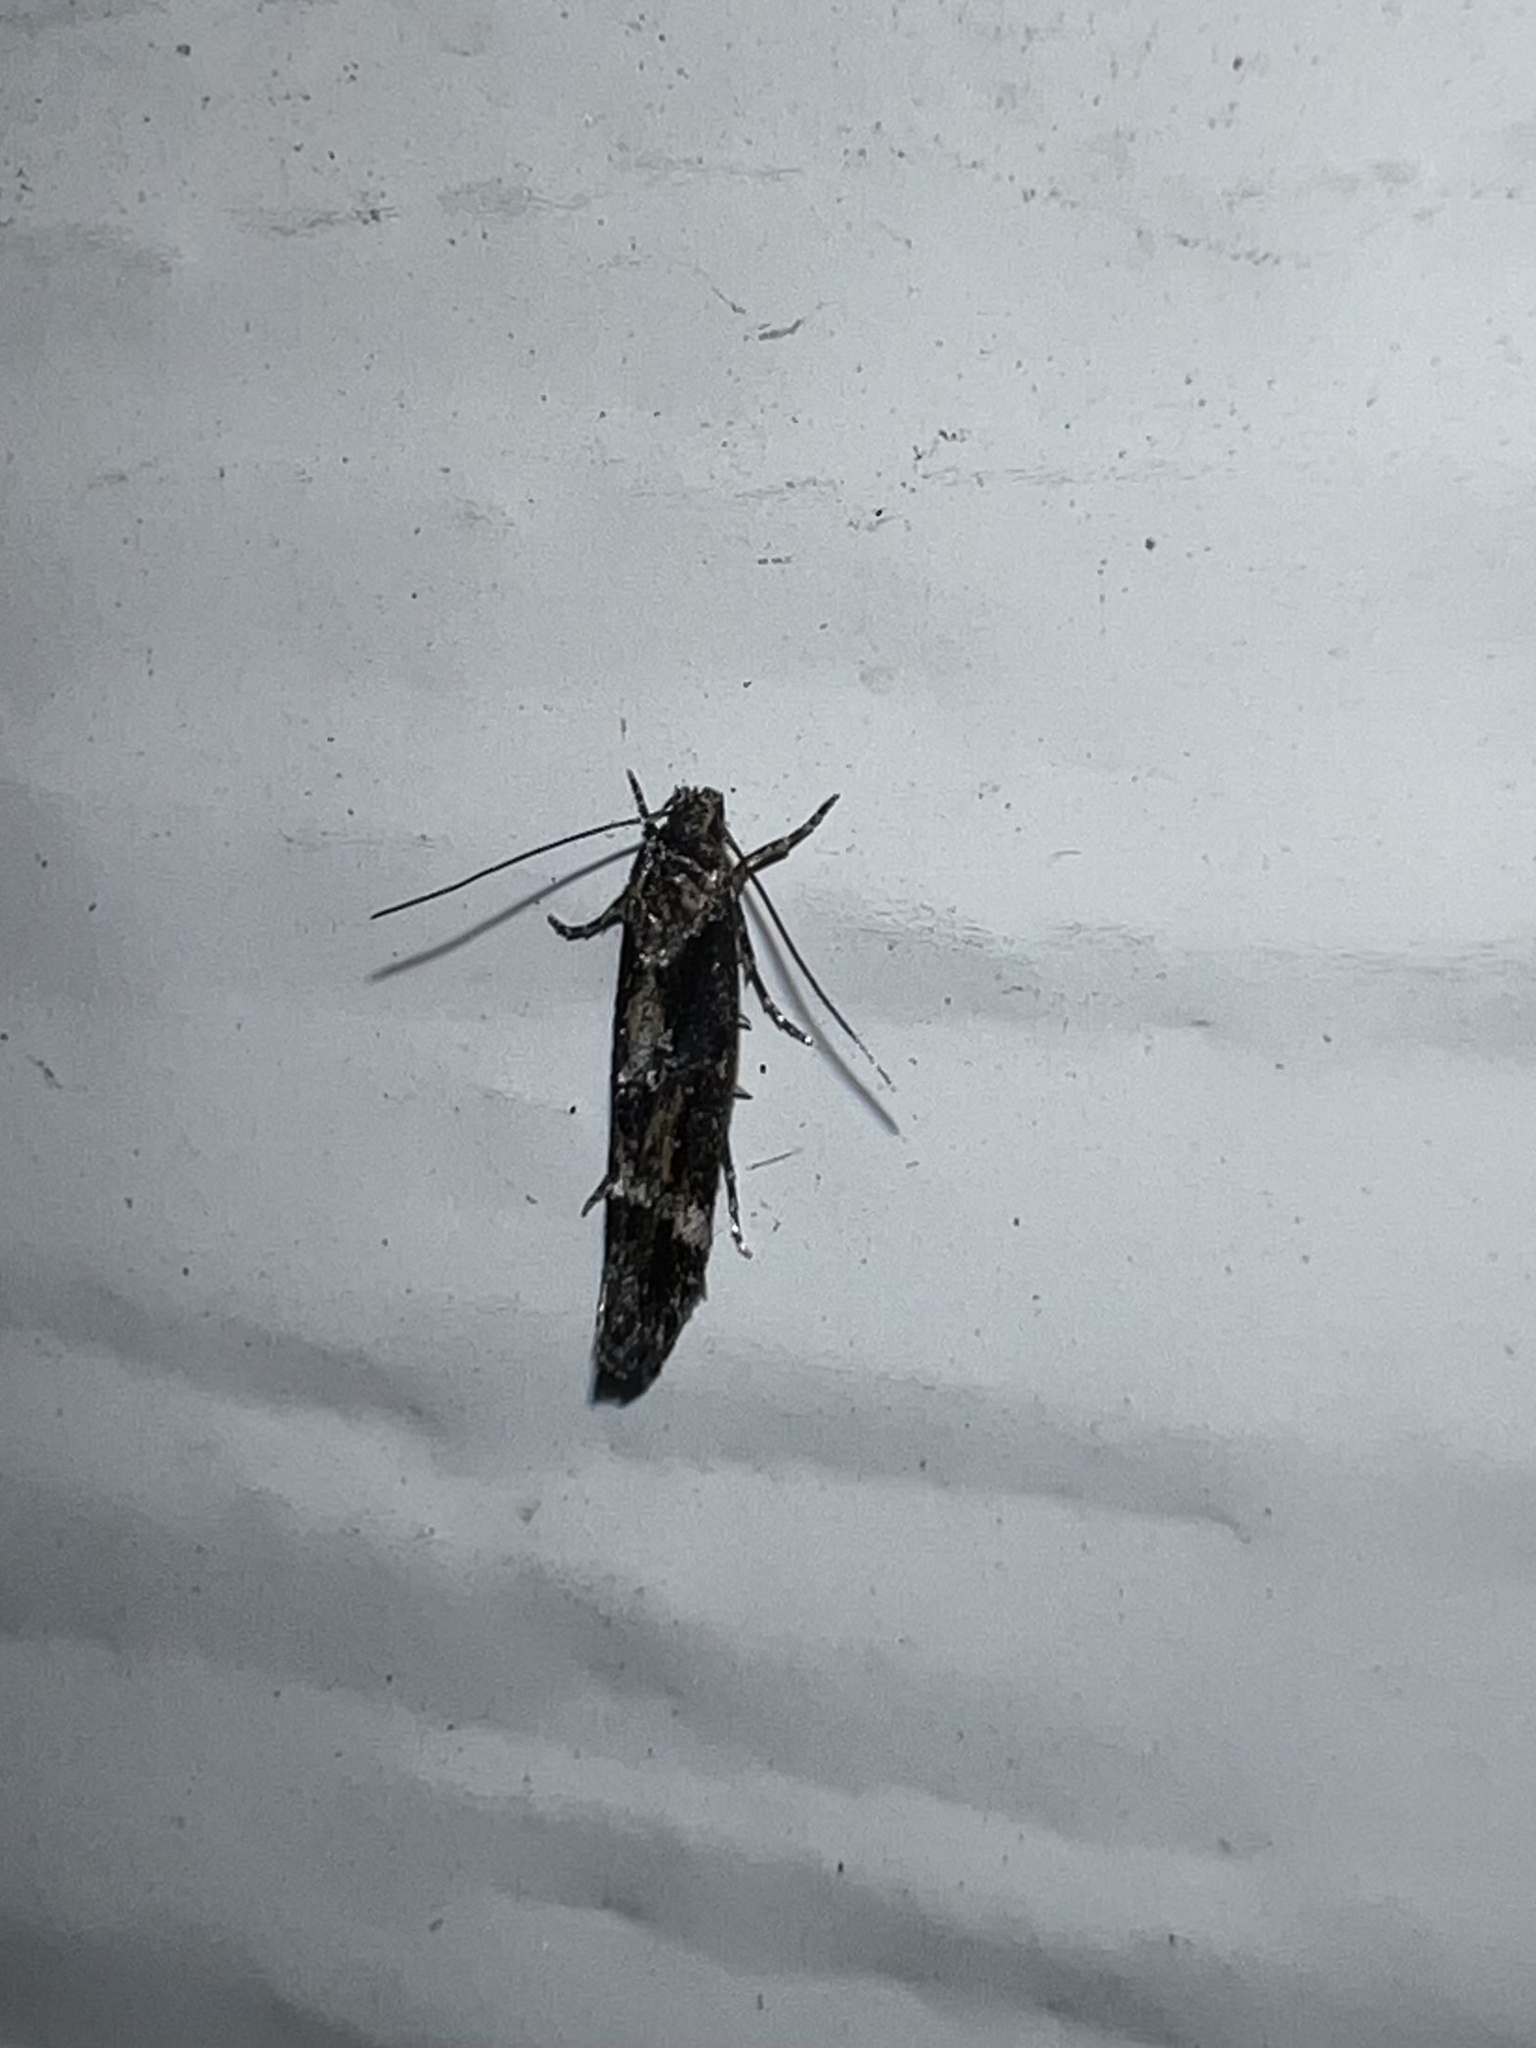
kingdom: Animalia
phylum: Arthropoda
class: Insecta
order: Lepidoptera
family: Momphidae
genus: Mompha
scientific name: Mompha subbistrigella
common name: Garden cosmet
